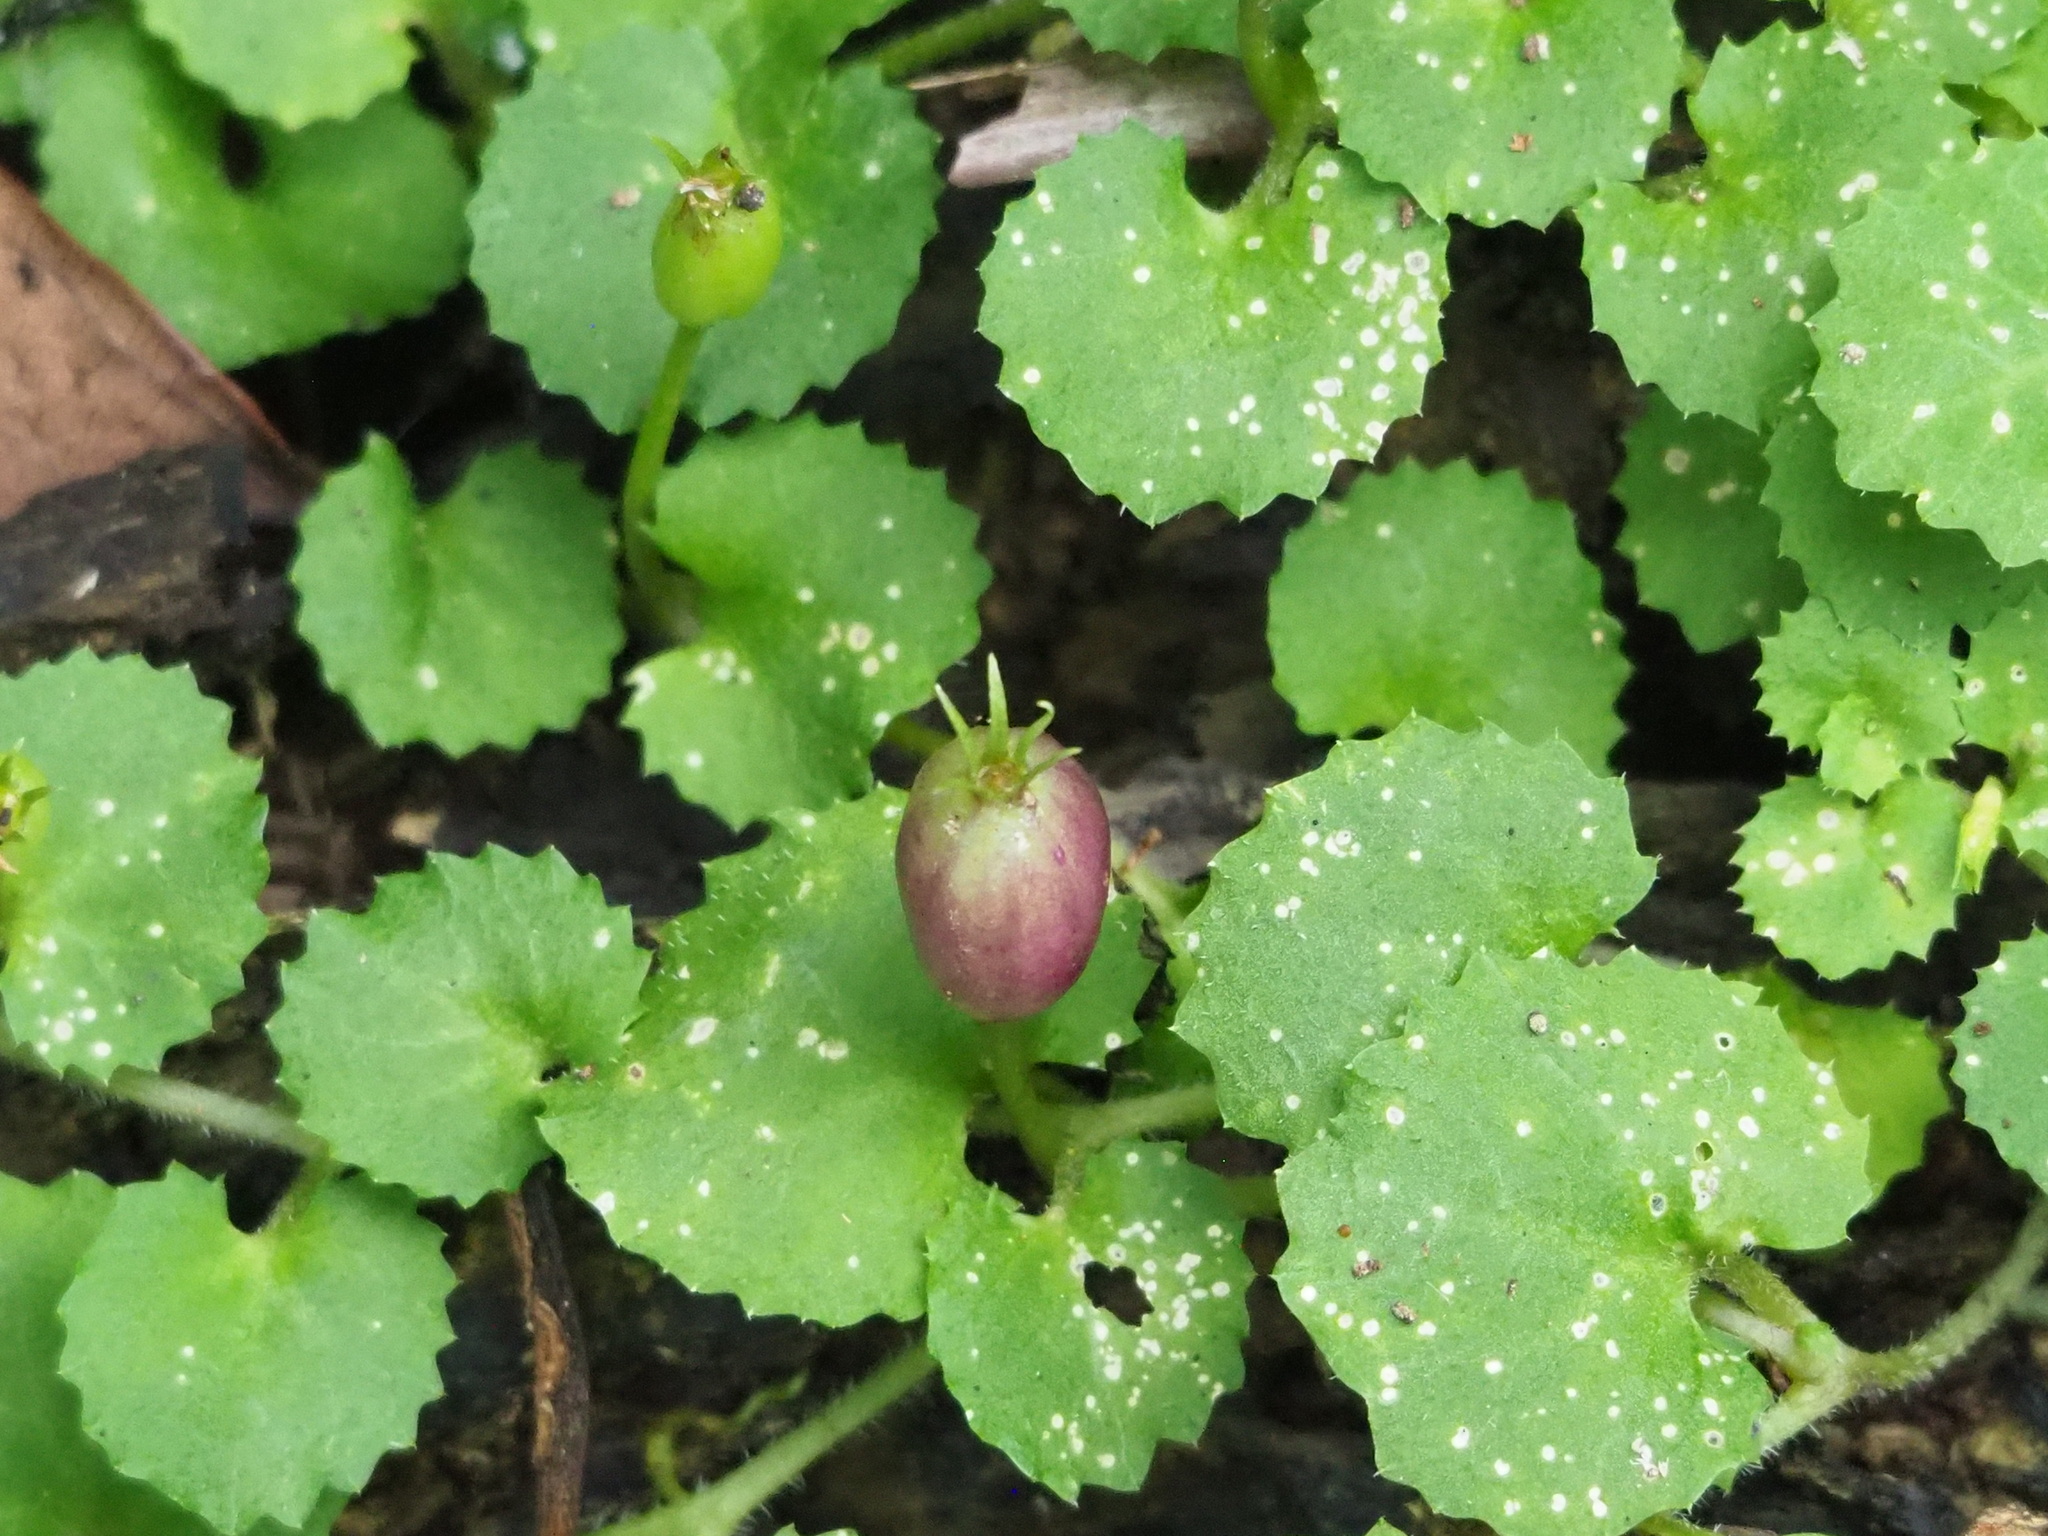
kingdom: Plantae
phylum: Tracheophyta
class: Magnoliopsida
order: Asterales
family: Campanulaceae
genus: Lobelia
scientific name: Lobelia nummularia
